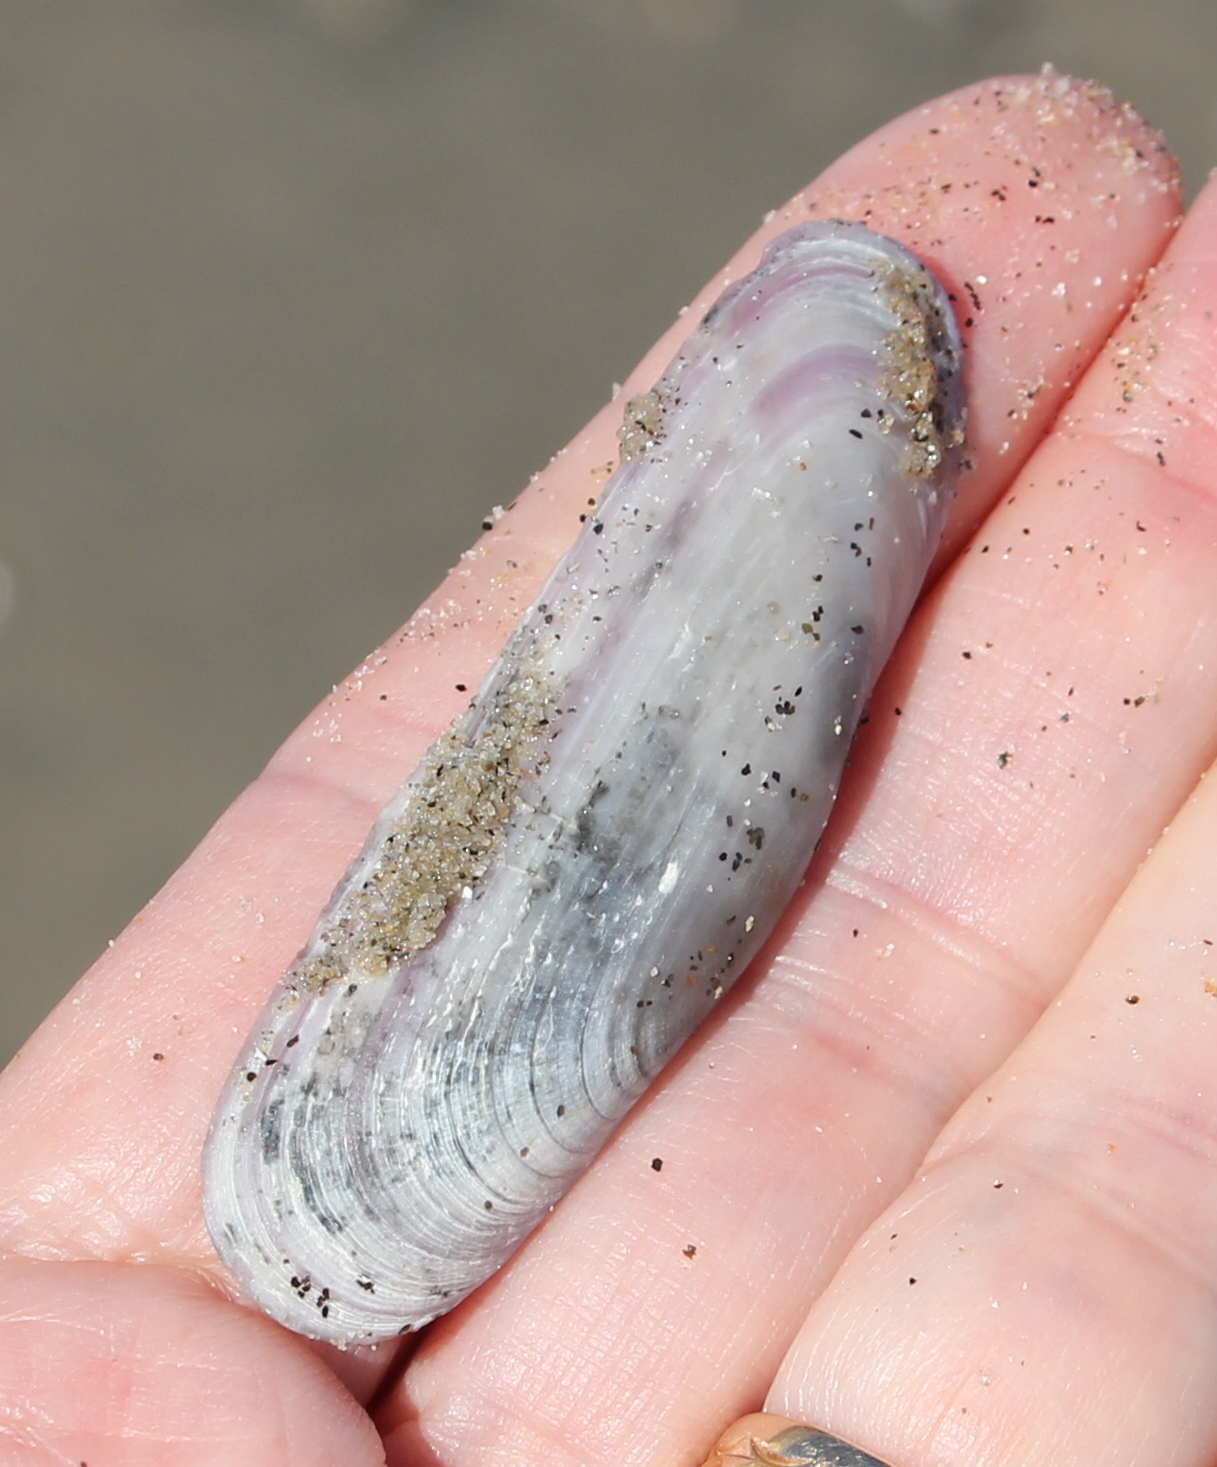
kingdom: Animalia
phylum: Mollusca
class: Bivalvia
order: Cardiida
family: Solecurtidae
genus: Tagelus
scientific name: Tagelus californianus
